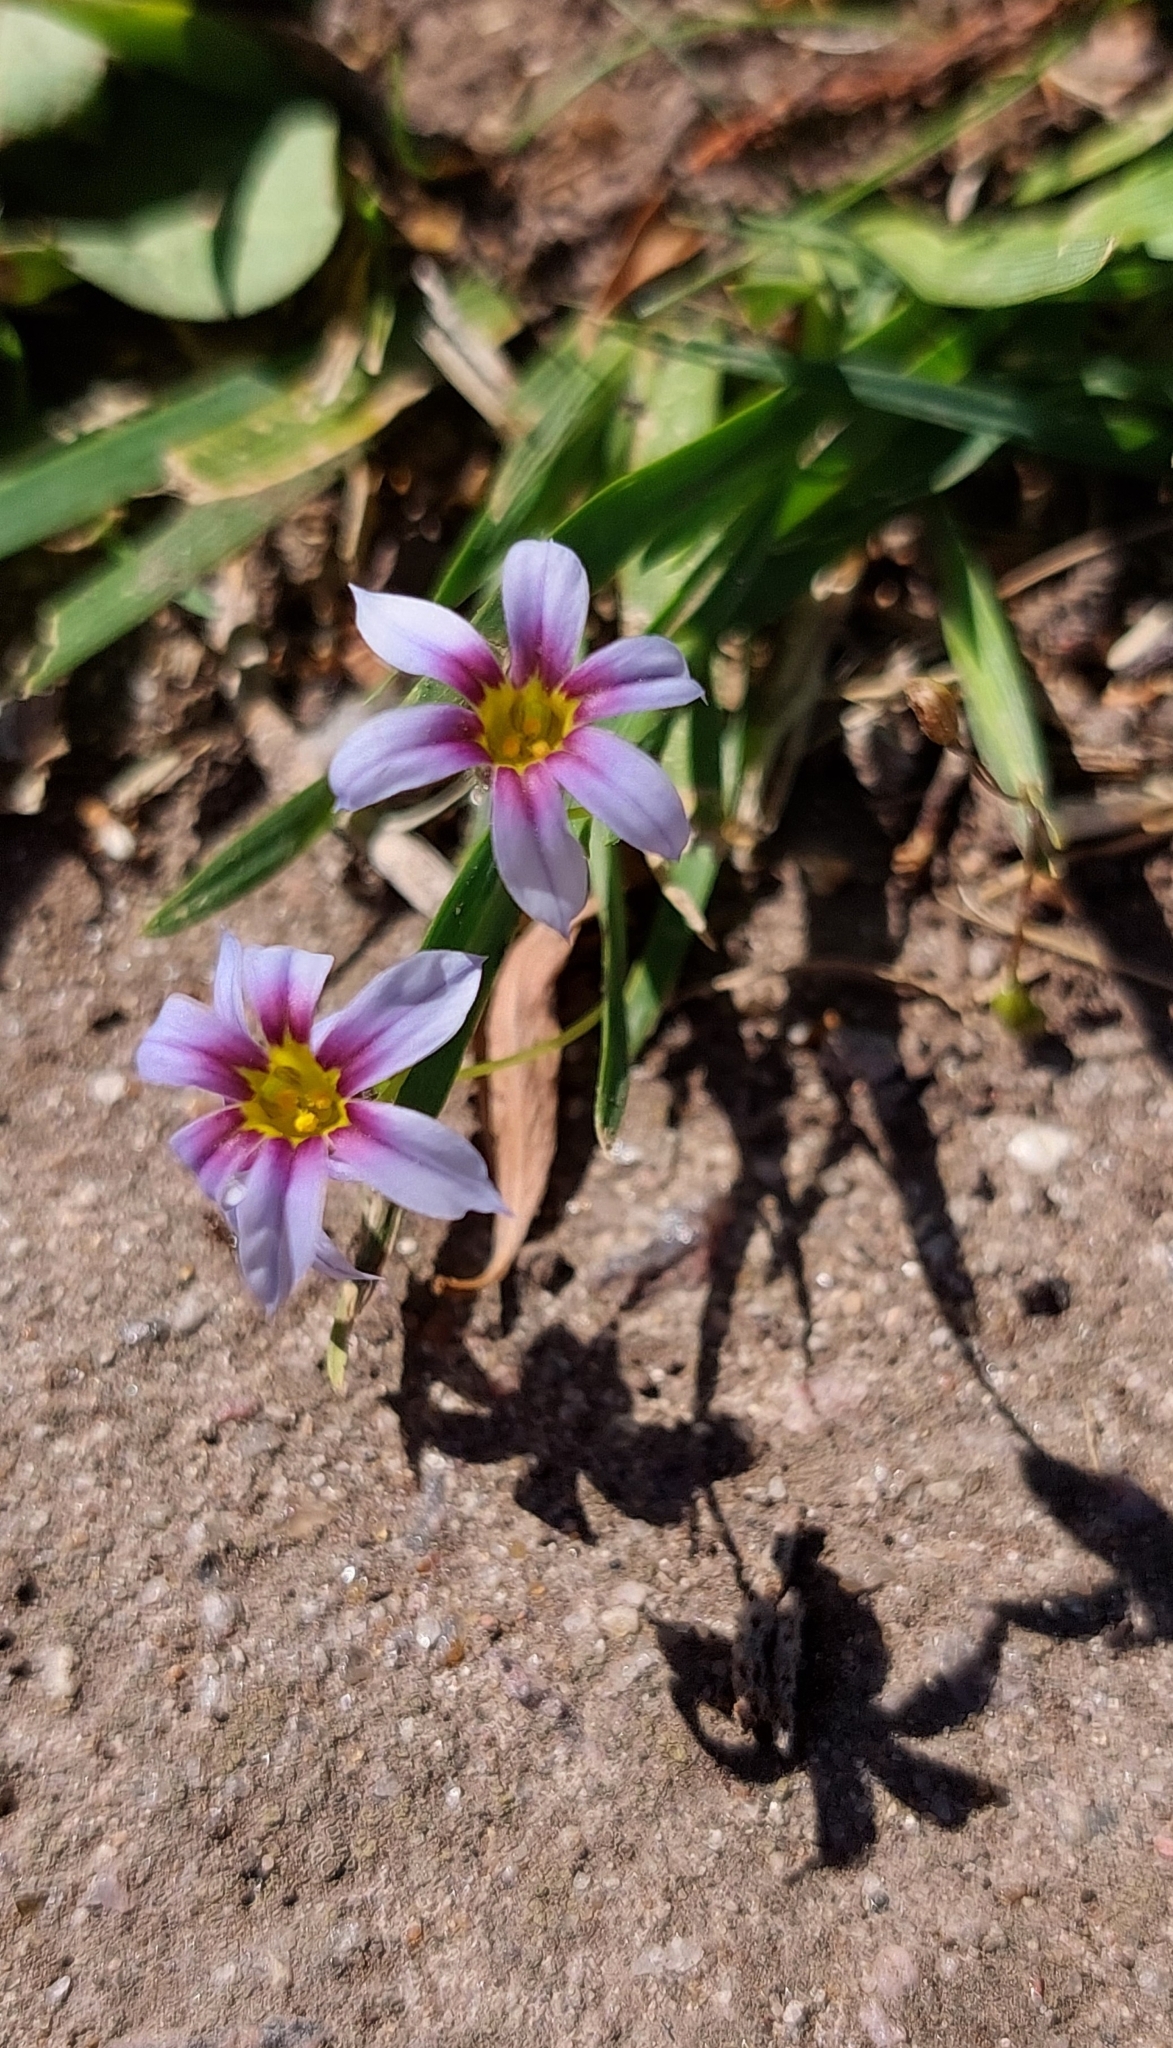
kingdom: Plantae
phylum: Tracheophyta
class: Liliopsida
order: Asparagales
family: Iridaceae
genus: Sisyrinchium
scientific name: Sisyrinchium micranthum
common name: Bermuda pigroot
